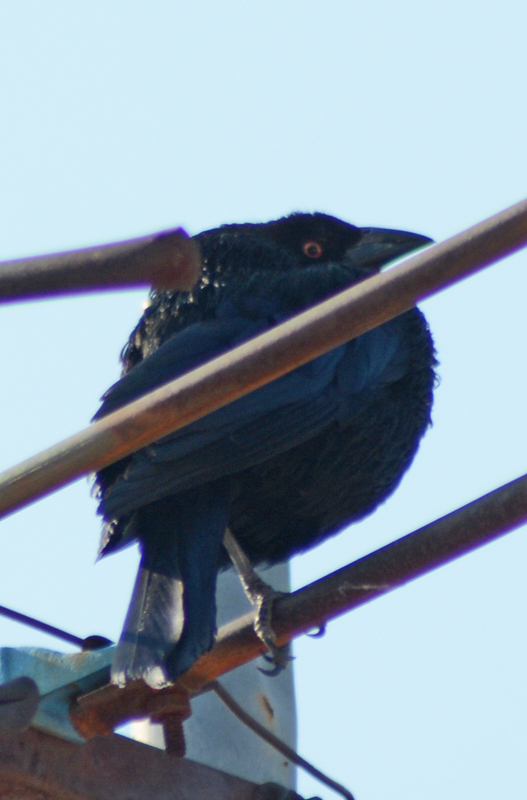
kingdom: Animalia
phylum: Chordata
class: Aves
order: Passeriformes
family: Icteridae
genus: Molothrus
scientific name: Molothrus aeneus
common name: Bronzed cowbird
